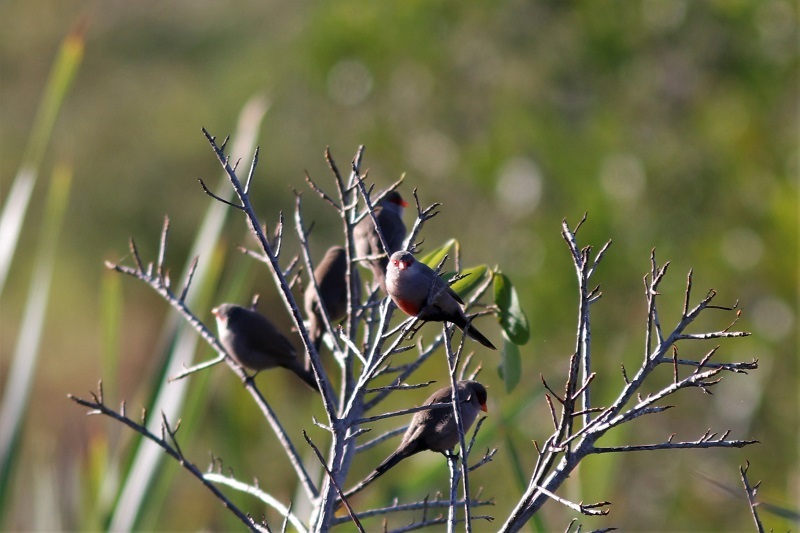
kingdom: Animalia
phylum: Chordata
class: Aves
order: Passeriformes
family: Estrildidae
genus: Estrilda
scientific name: Estrilda astrild
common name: Common waxbill
